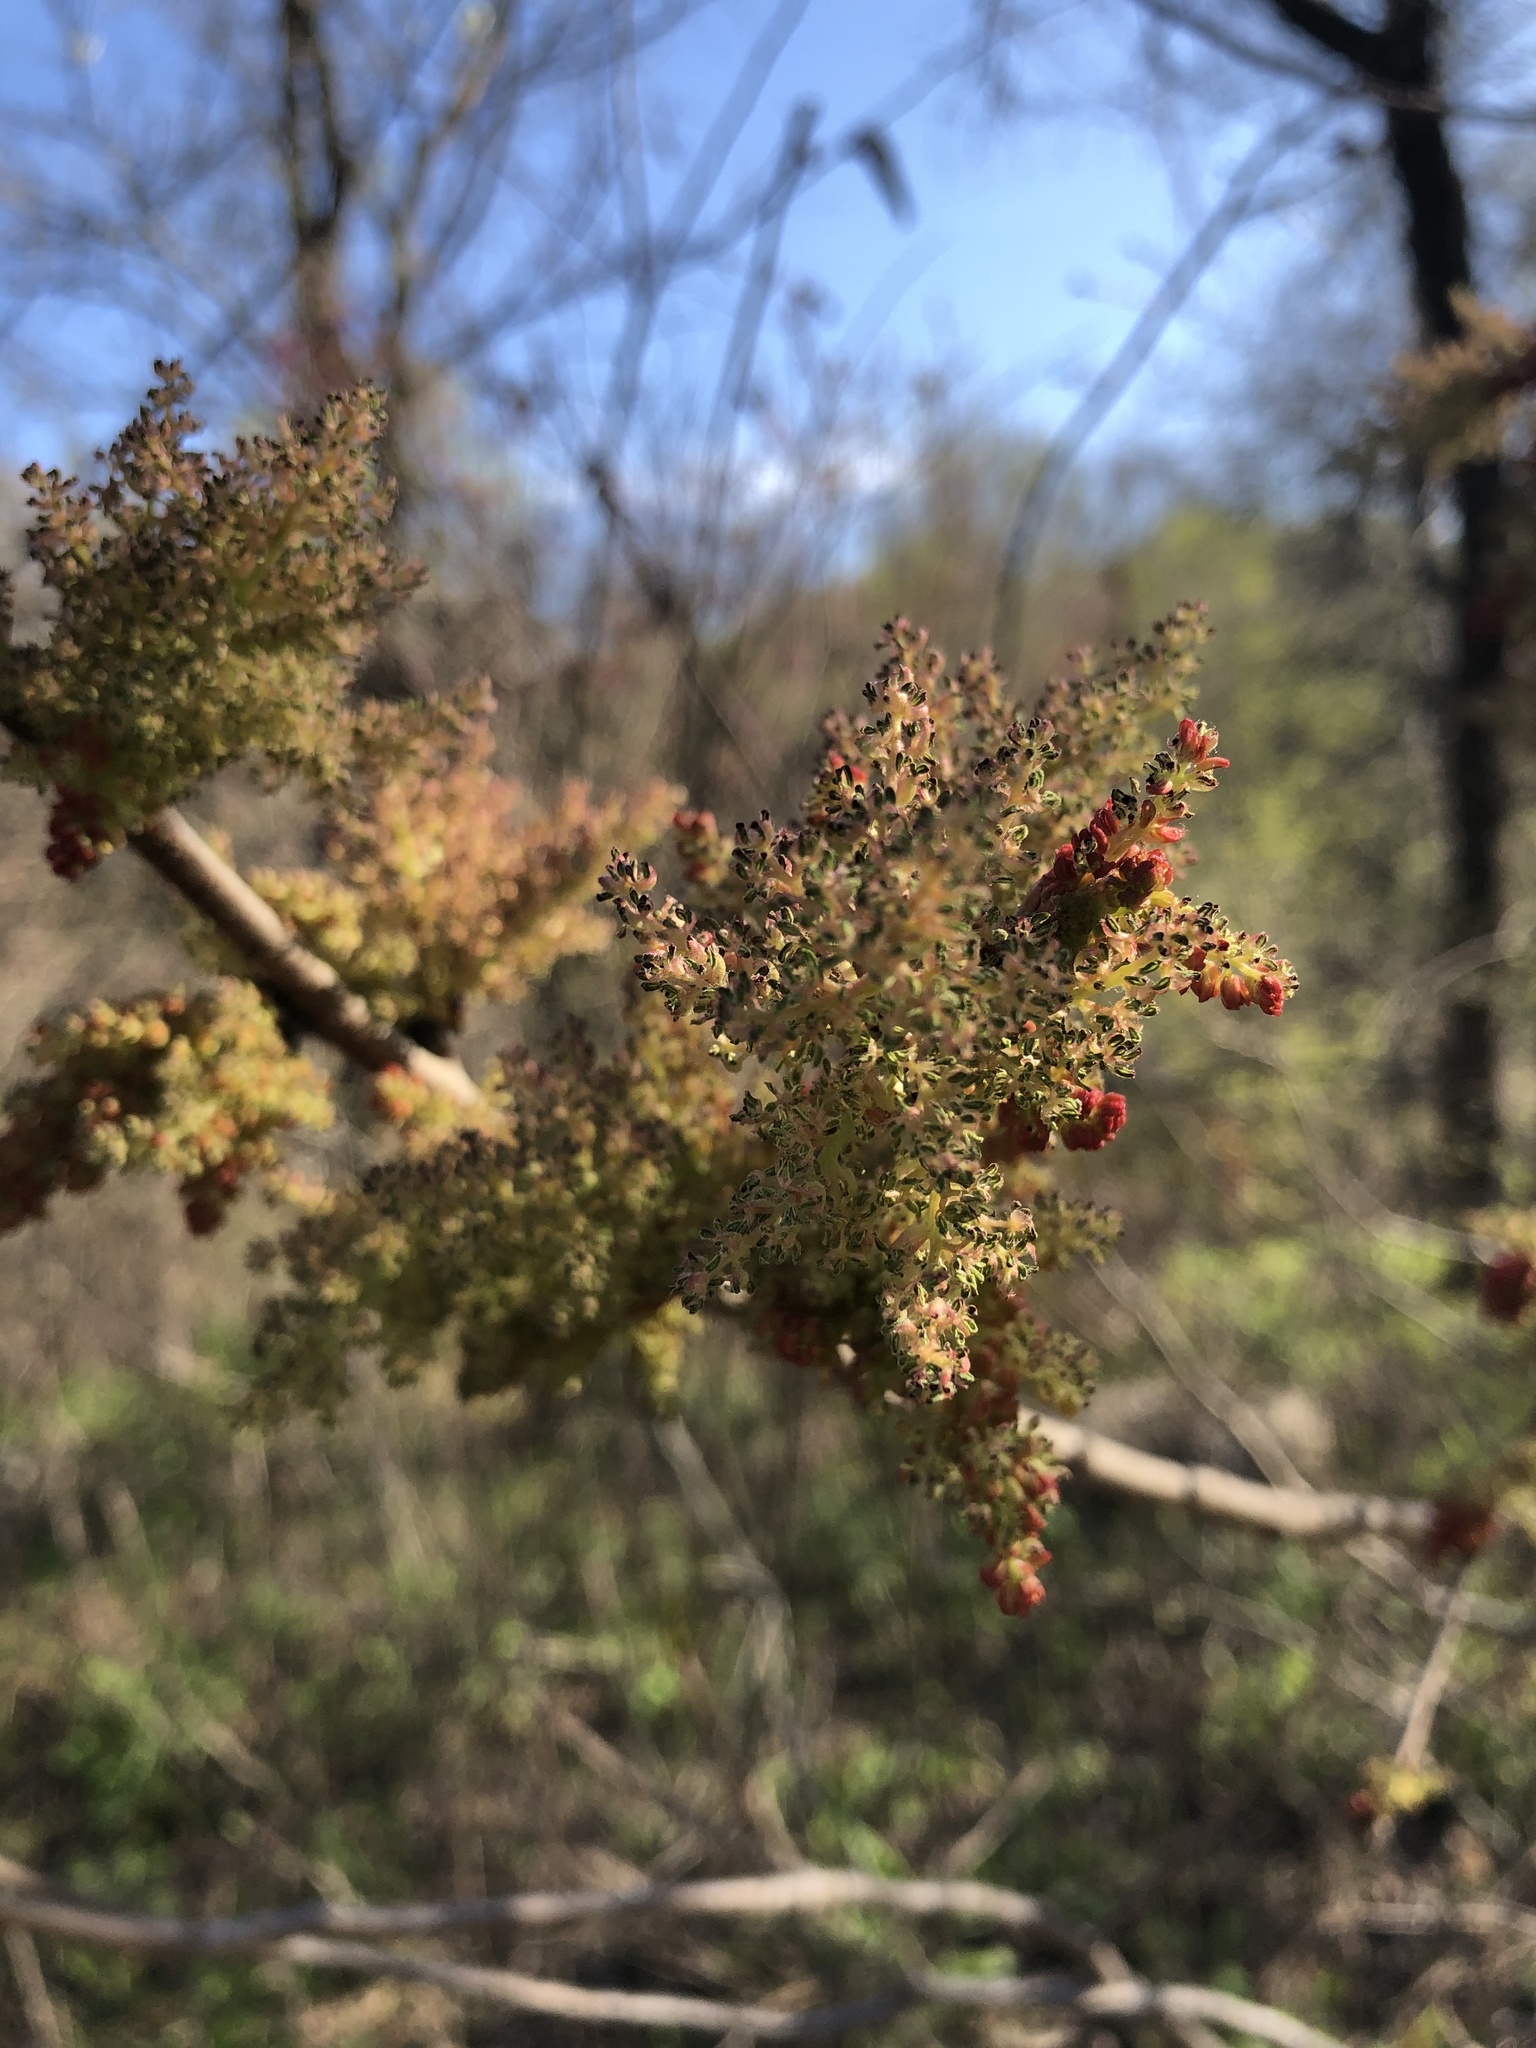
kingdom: Plantae
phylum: Tracheophyta
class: Magnoliopsida
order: Sapindales
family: Anacardiaceae
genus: Pistacia
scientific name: Pistacia chinensis
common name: Chinese pistache
